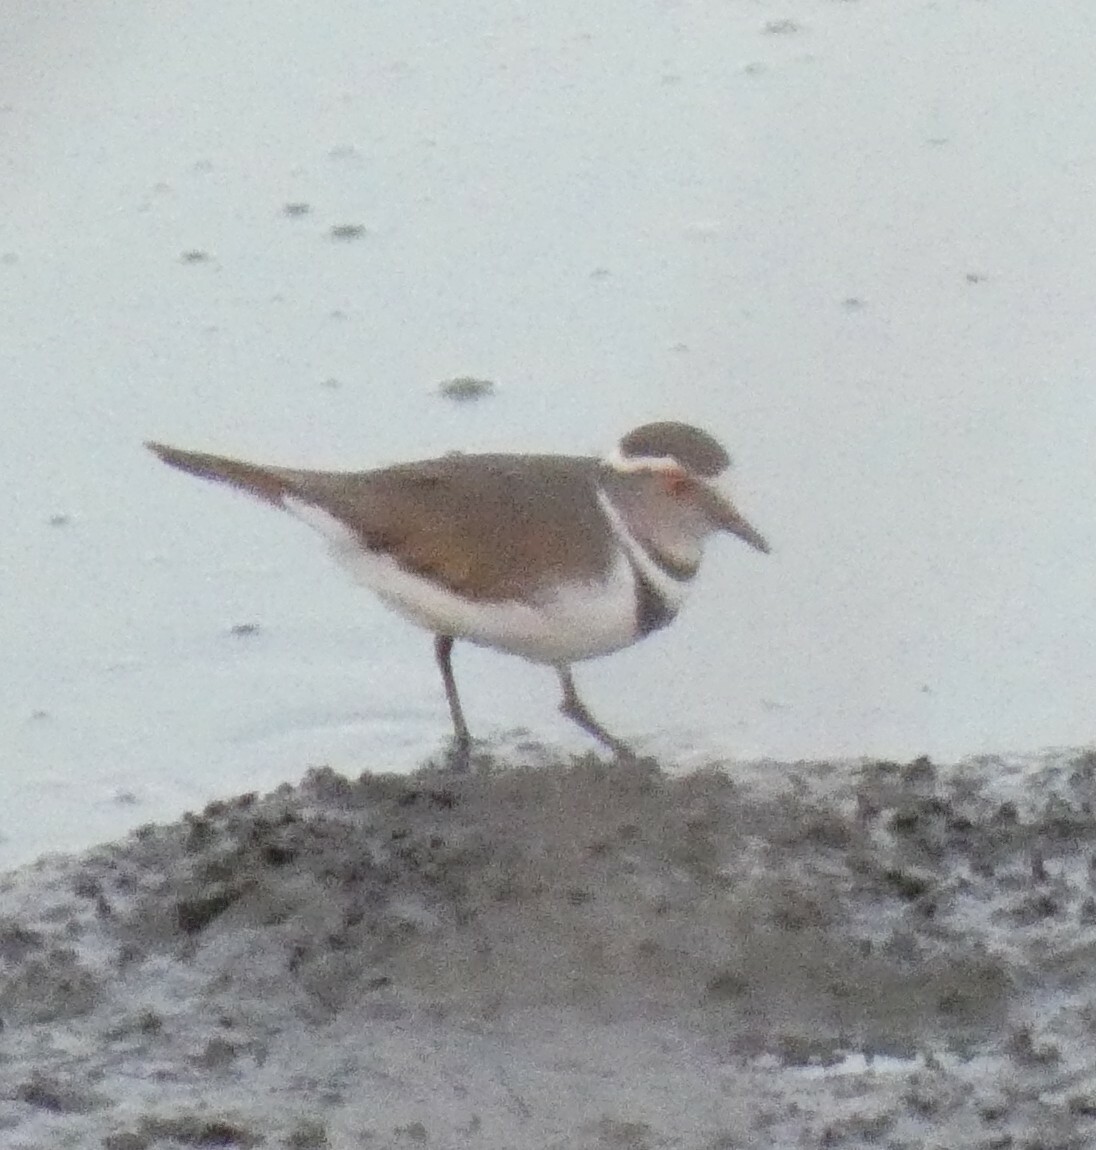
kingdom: Animalia
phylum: Chordata
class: Aves
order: Charadriiformes
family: Charadriidae
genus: Charadrius
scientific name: Charadrius tricollaris
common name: Three-banded plover
